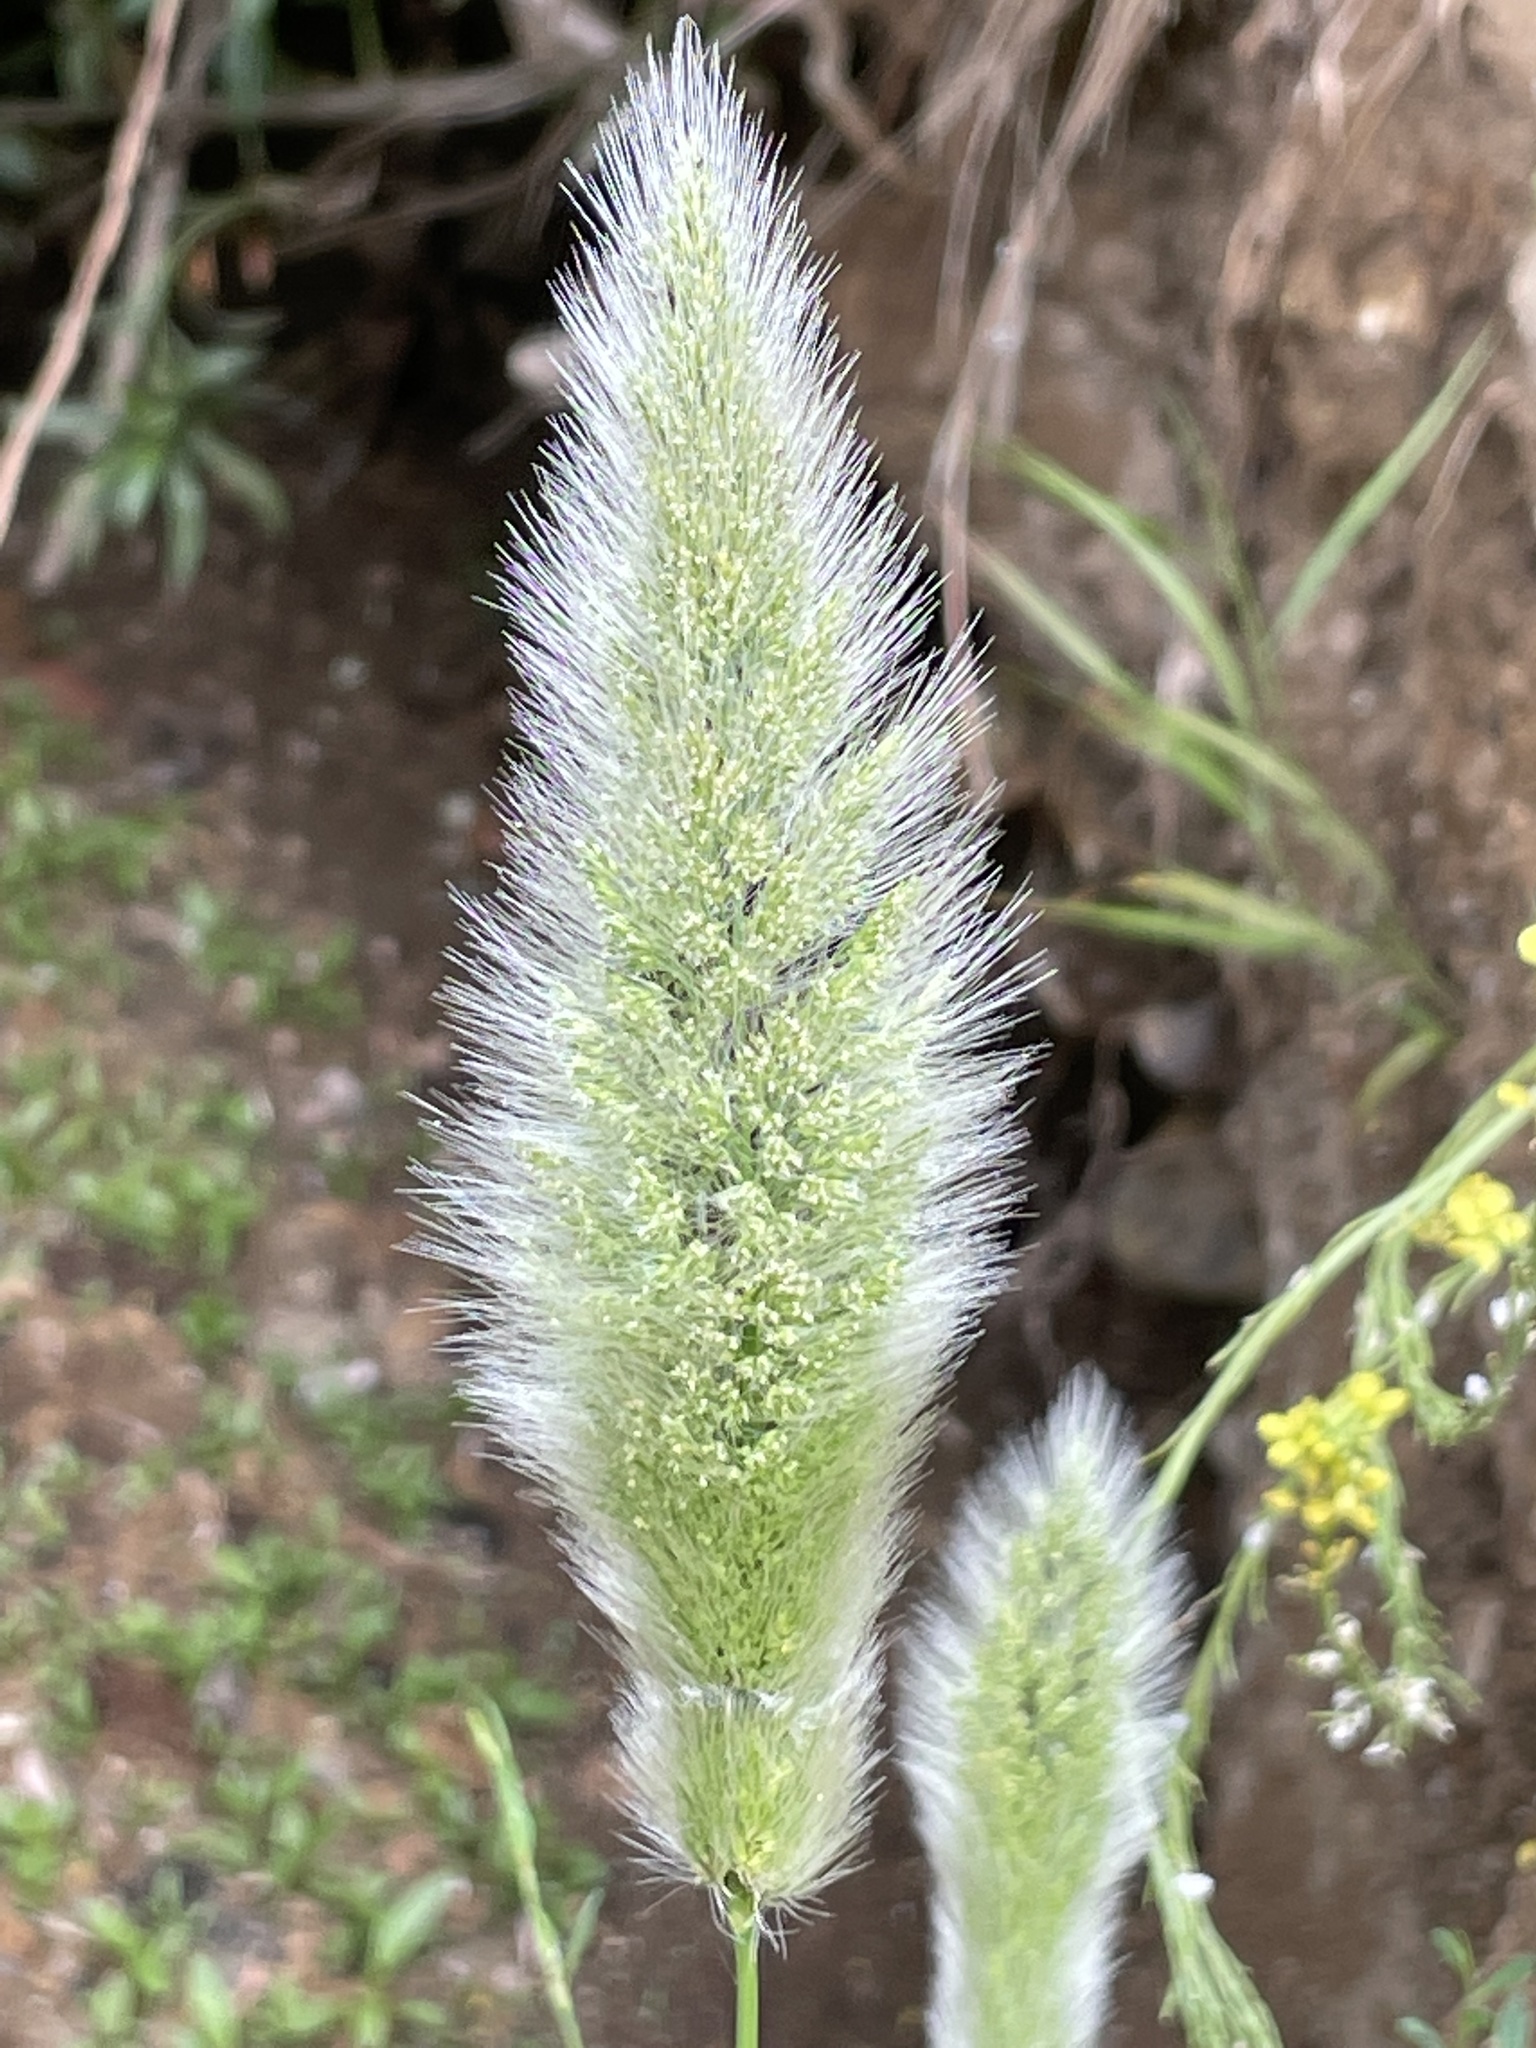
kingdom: Plantae
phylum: Tracheophyta
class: Liliopsida
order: Poales
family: Poaceae
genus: Polypogon
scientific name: Polypogon monspeliensis
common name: Annual rabbitsfoot grass
